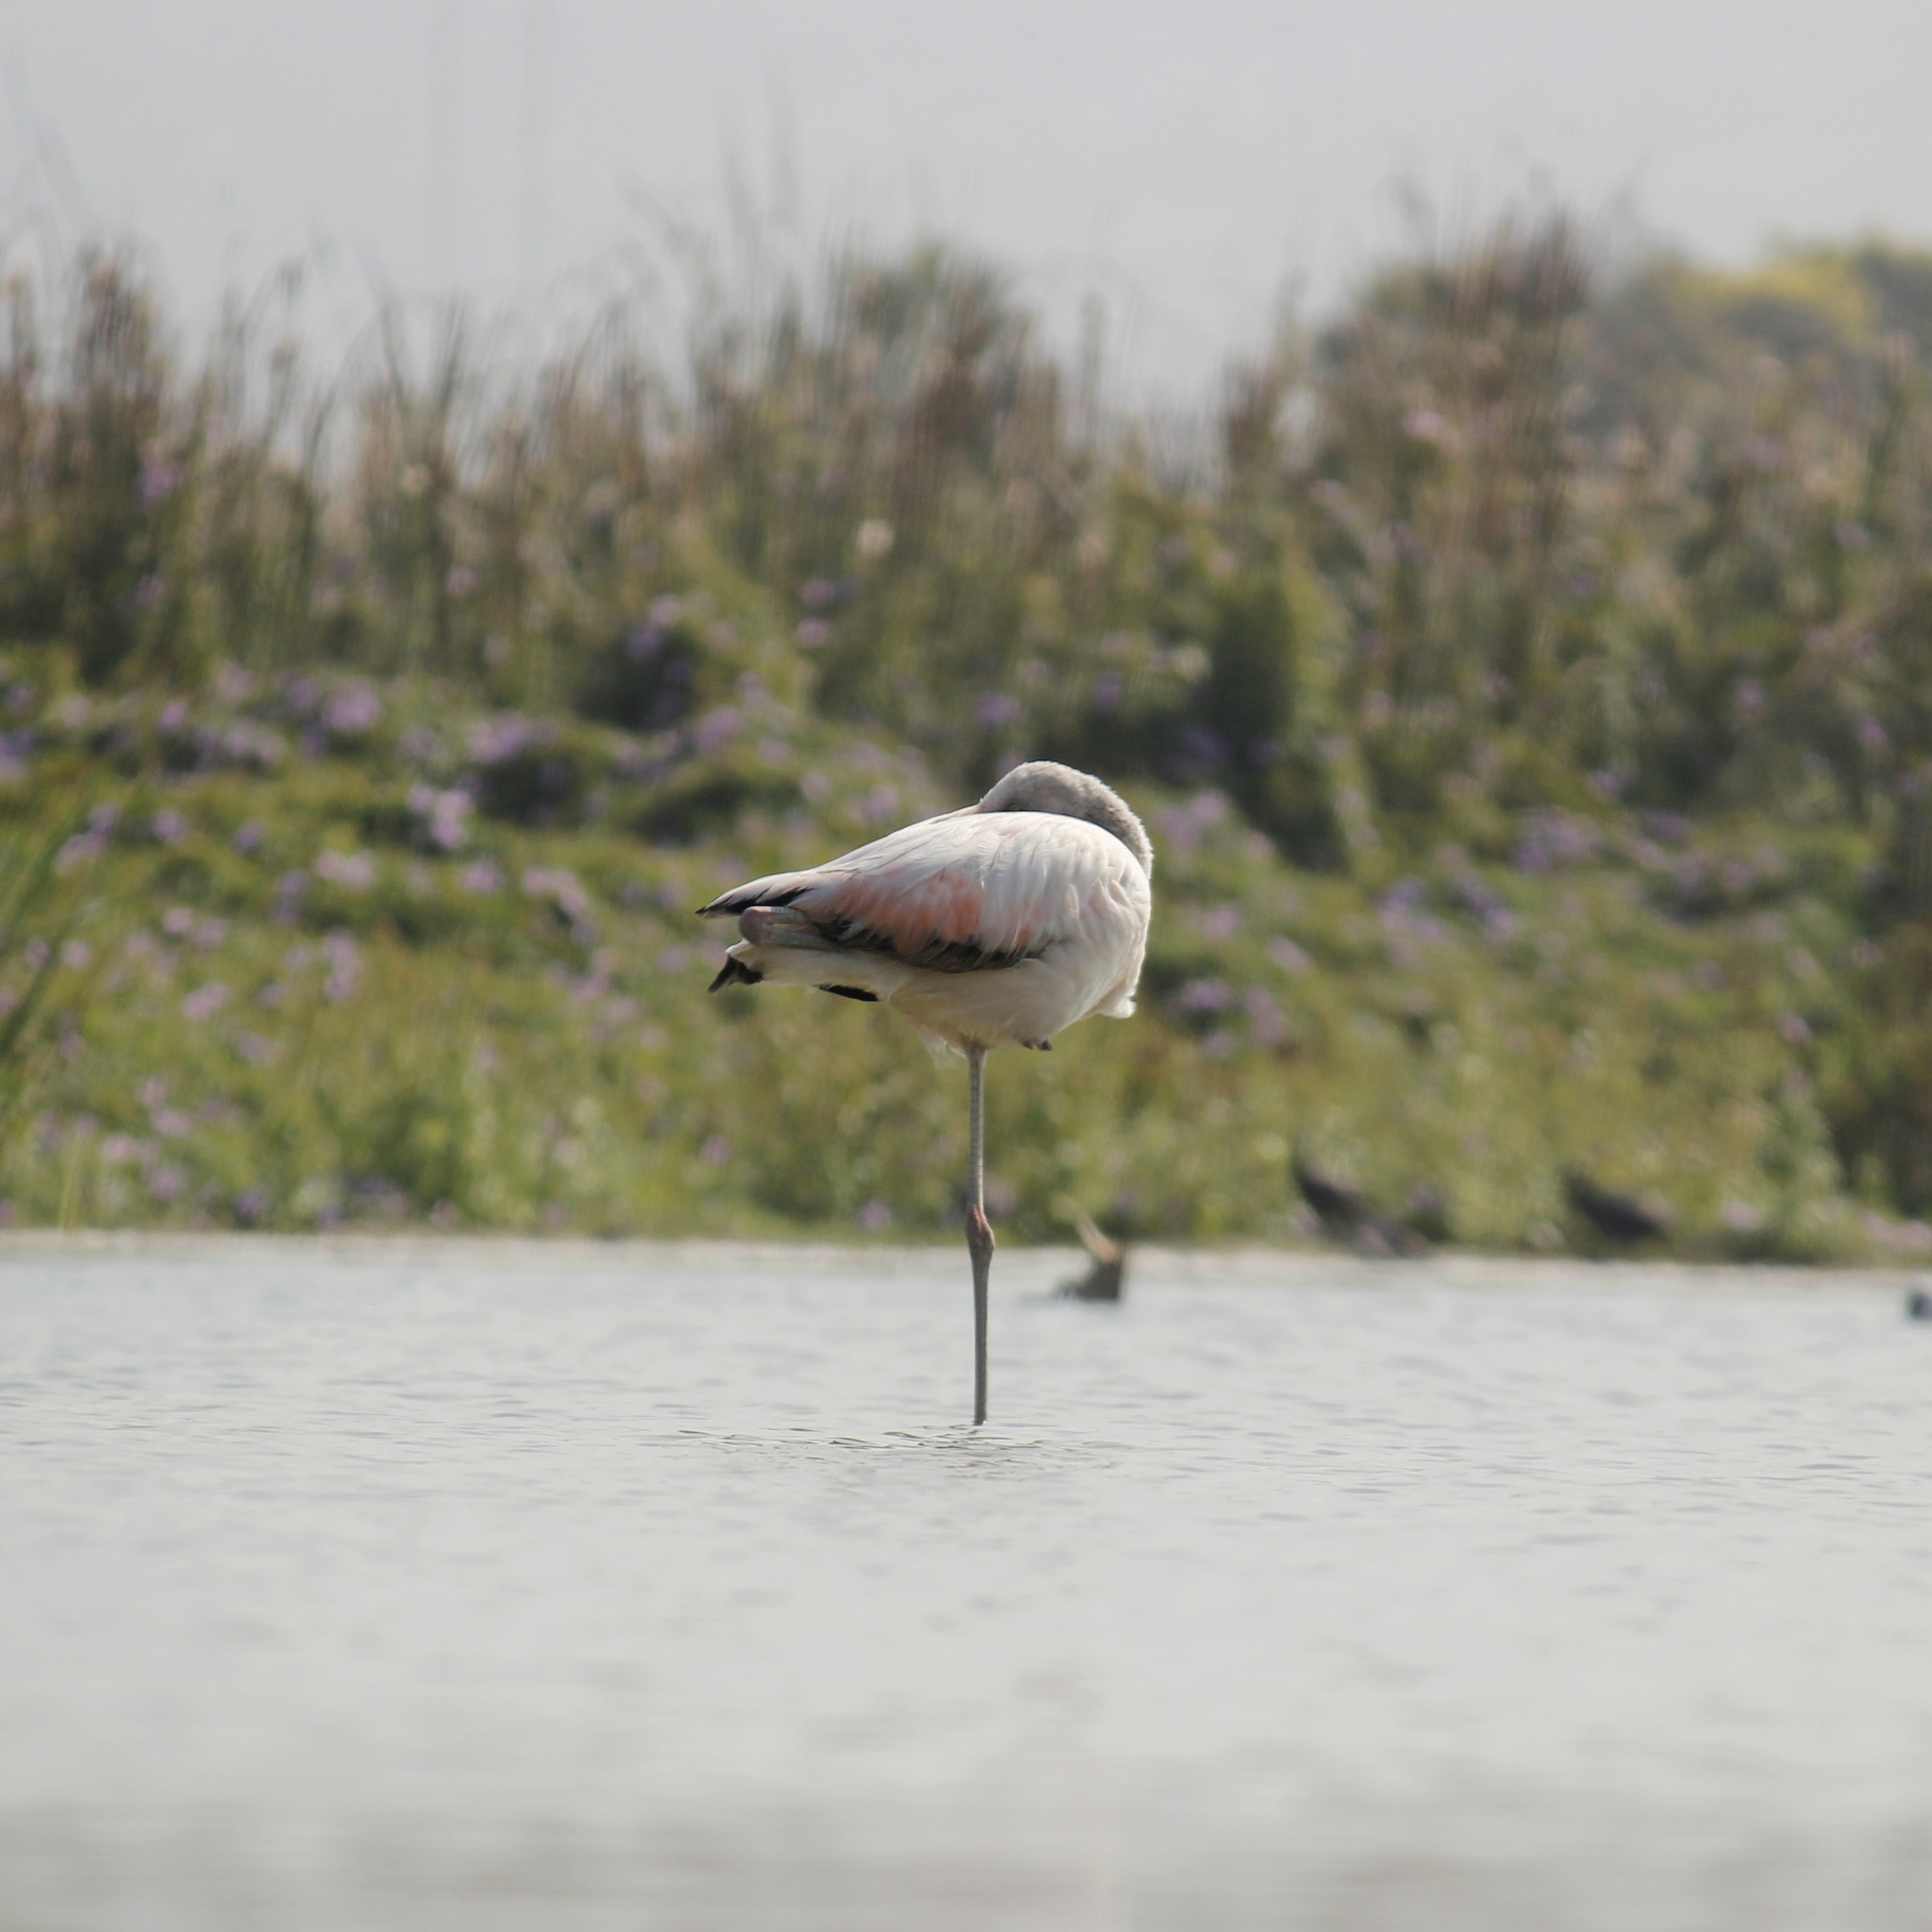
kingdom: Animalia
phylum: Chordata
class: Aves
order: Phoenicopteriformes
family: Phoenicopteridae
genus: Phoenicopterus
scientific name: Phoenicopterus chilensis
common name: Chilean flamingo
